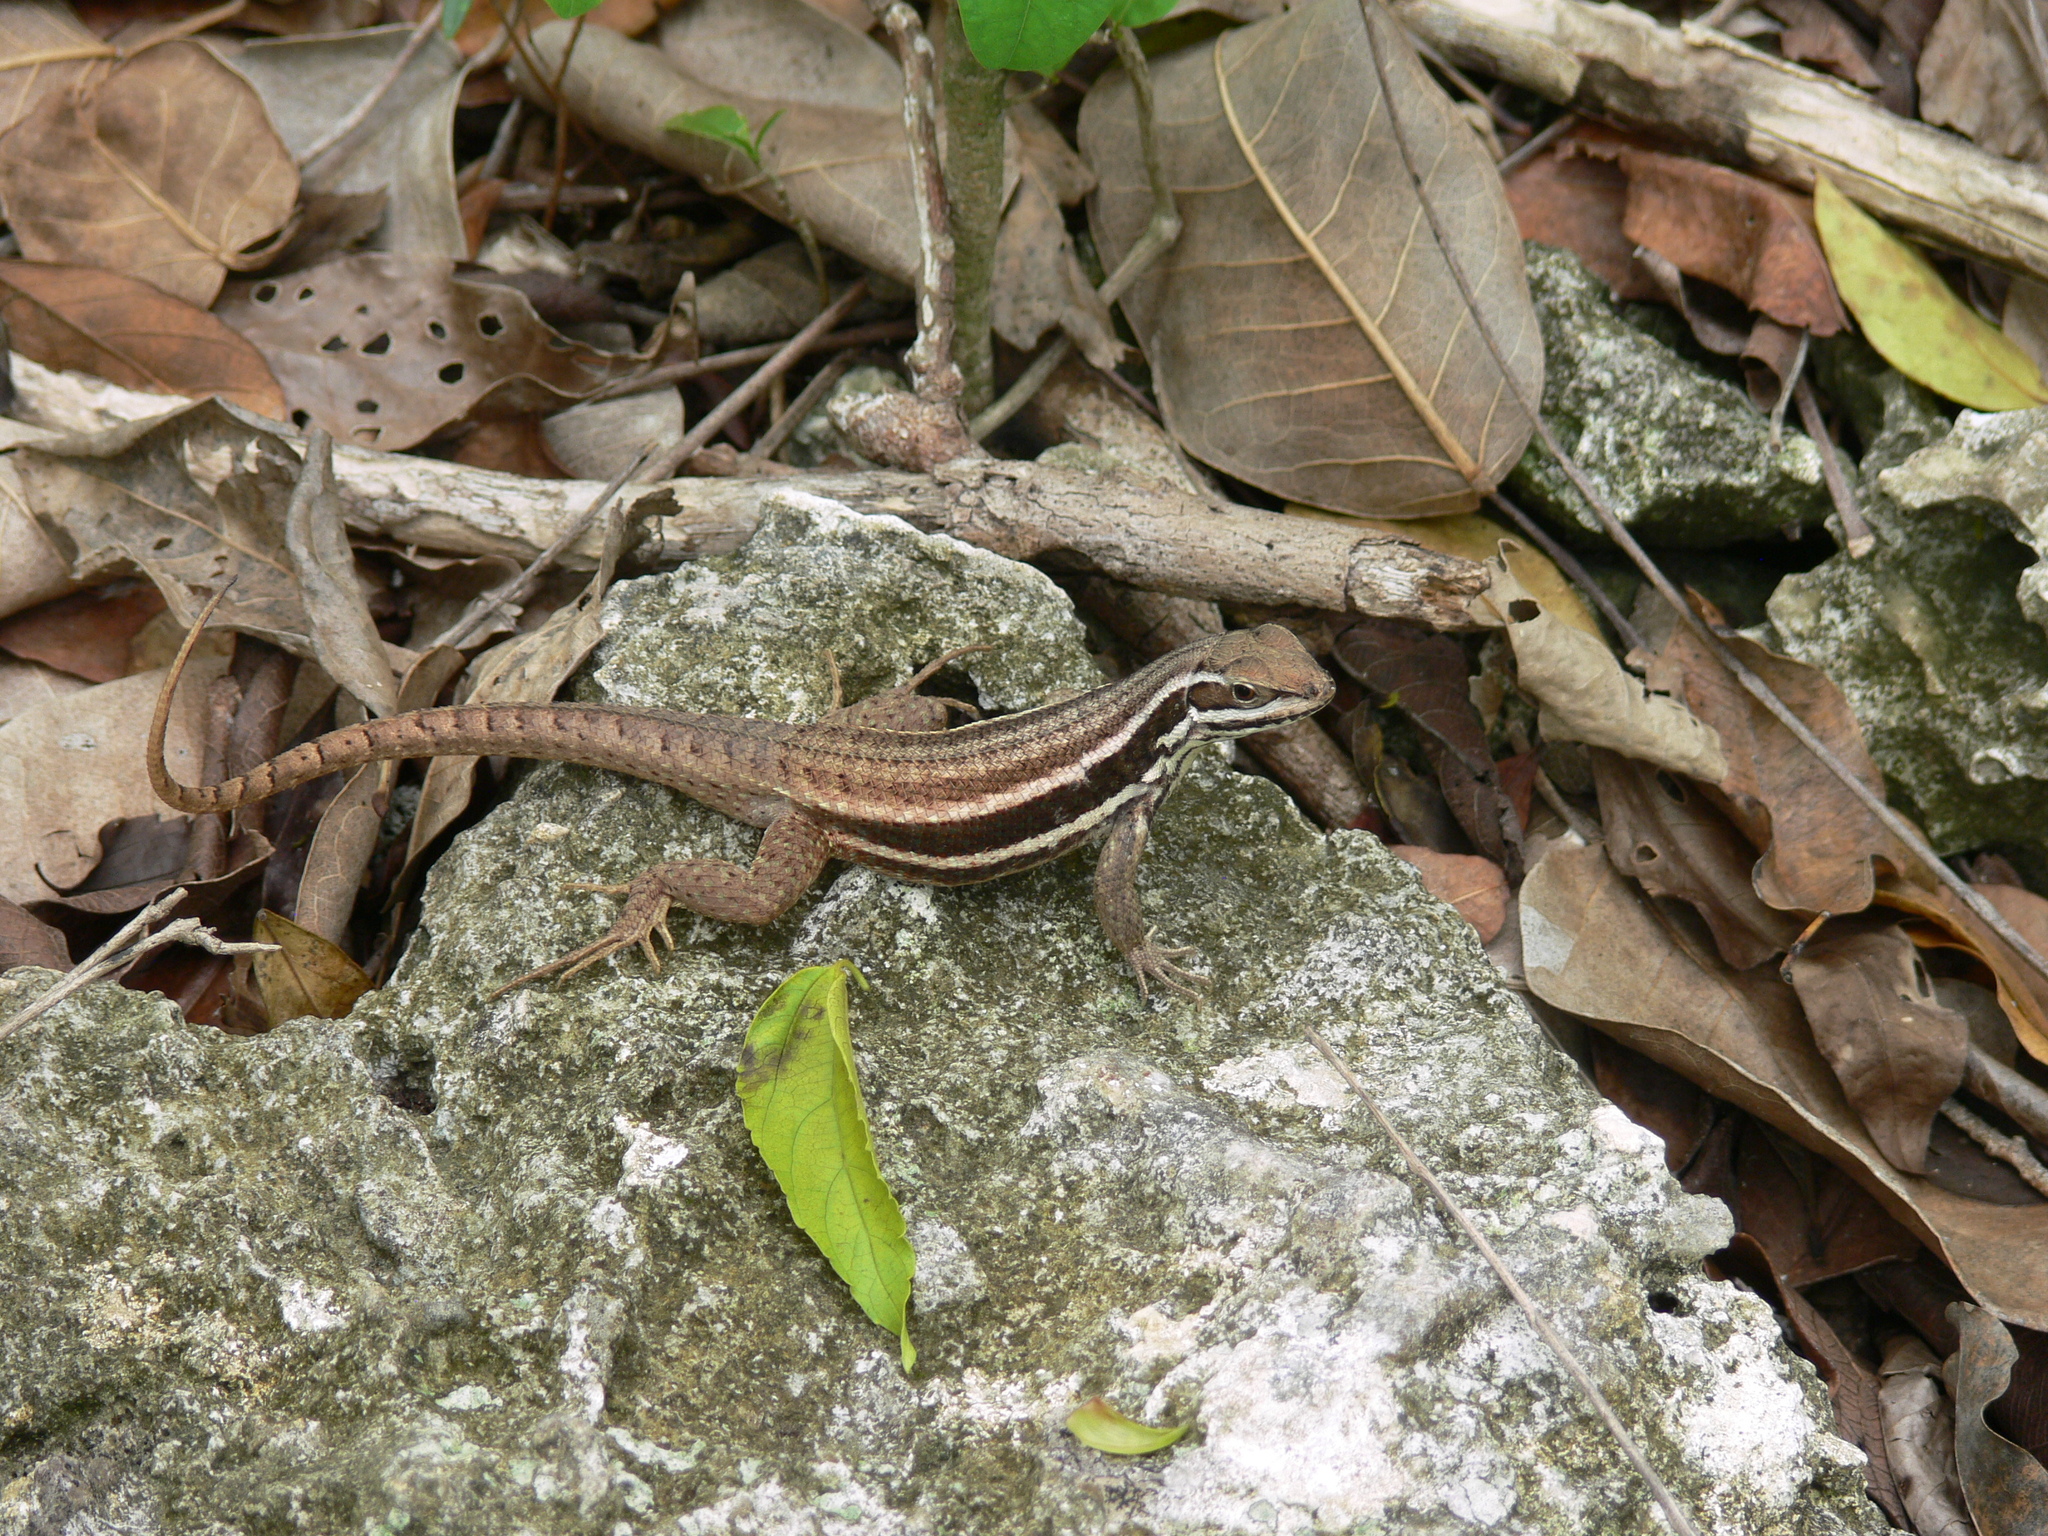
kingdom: Animalia
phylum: Chordata
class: Squamata
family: Leiocephalidae
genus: Leiocephalus
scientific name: Leiocephalus cubensis
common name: Cuban curlytail lizard
